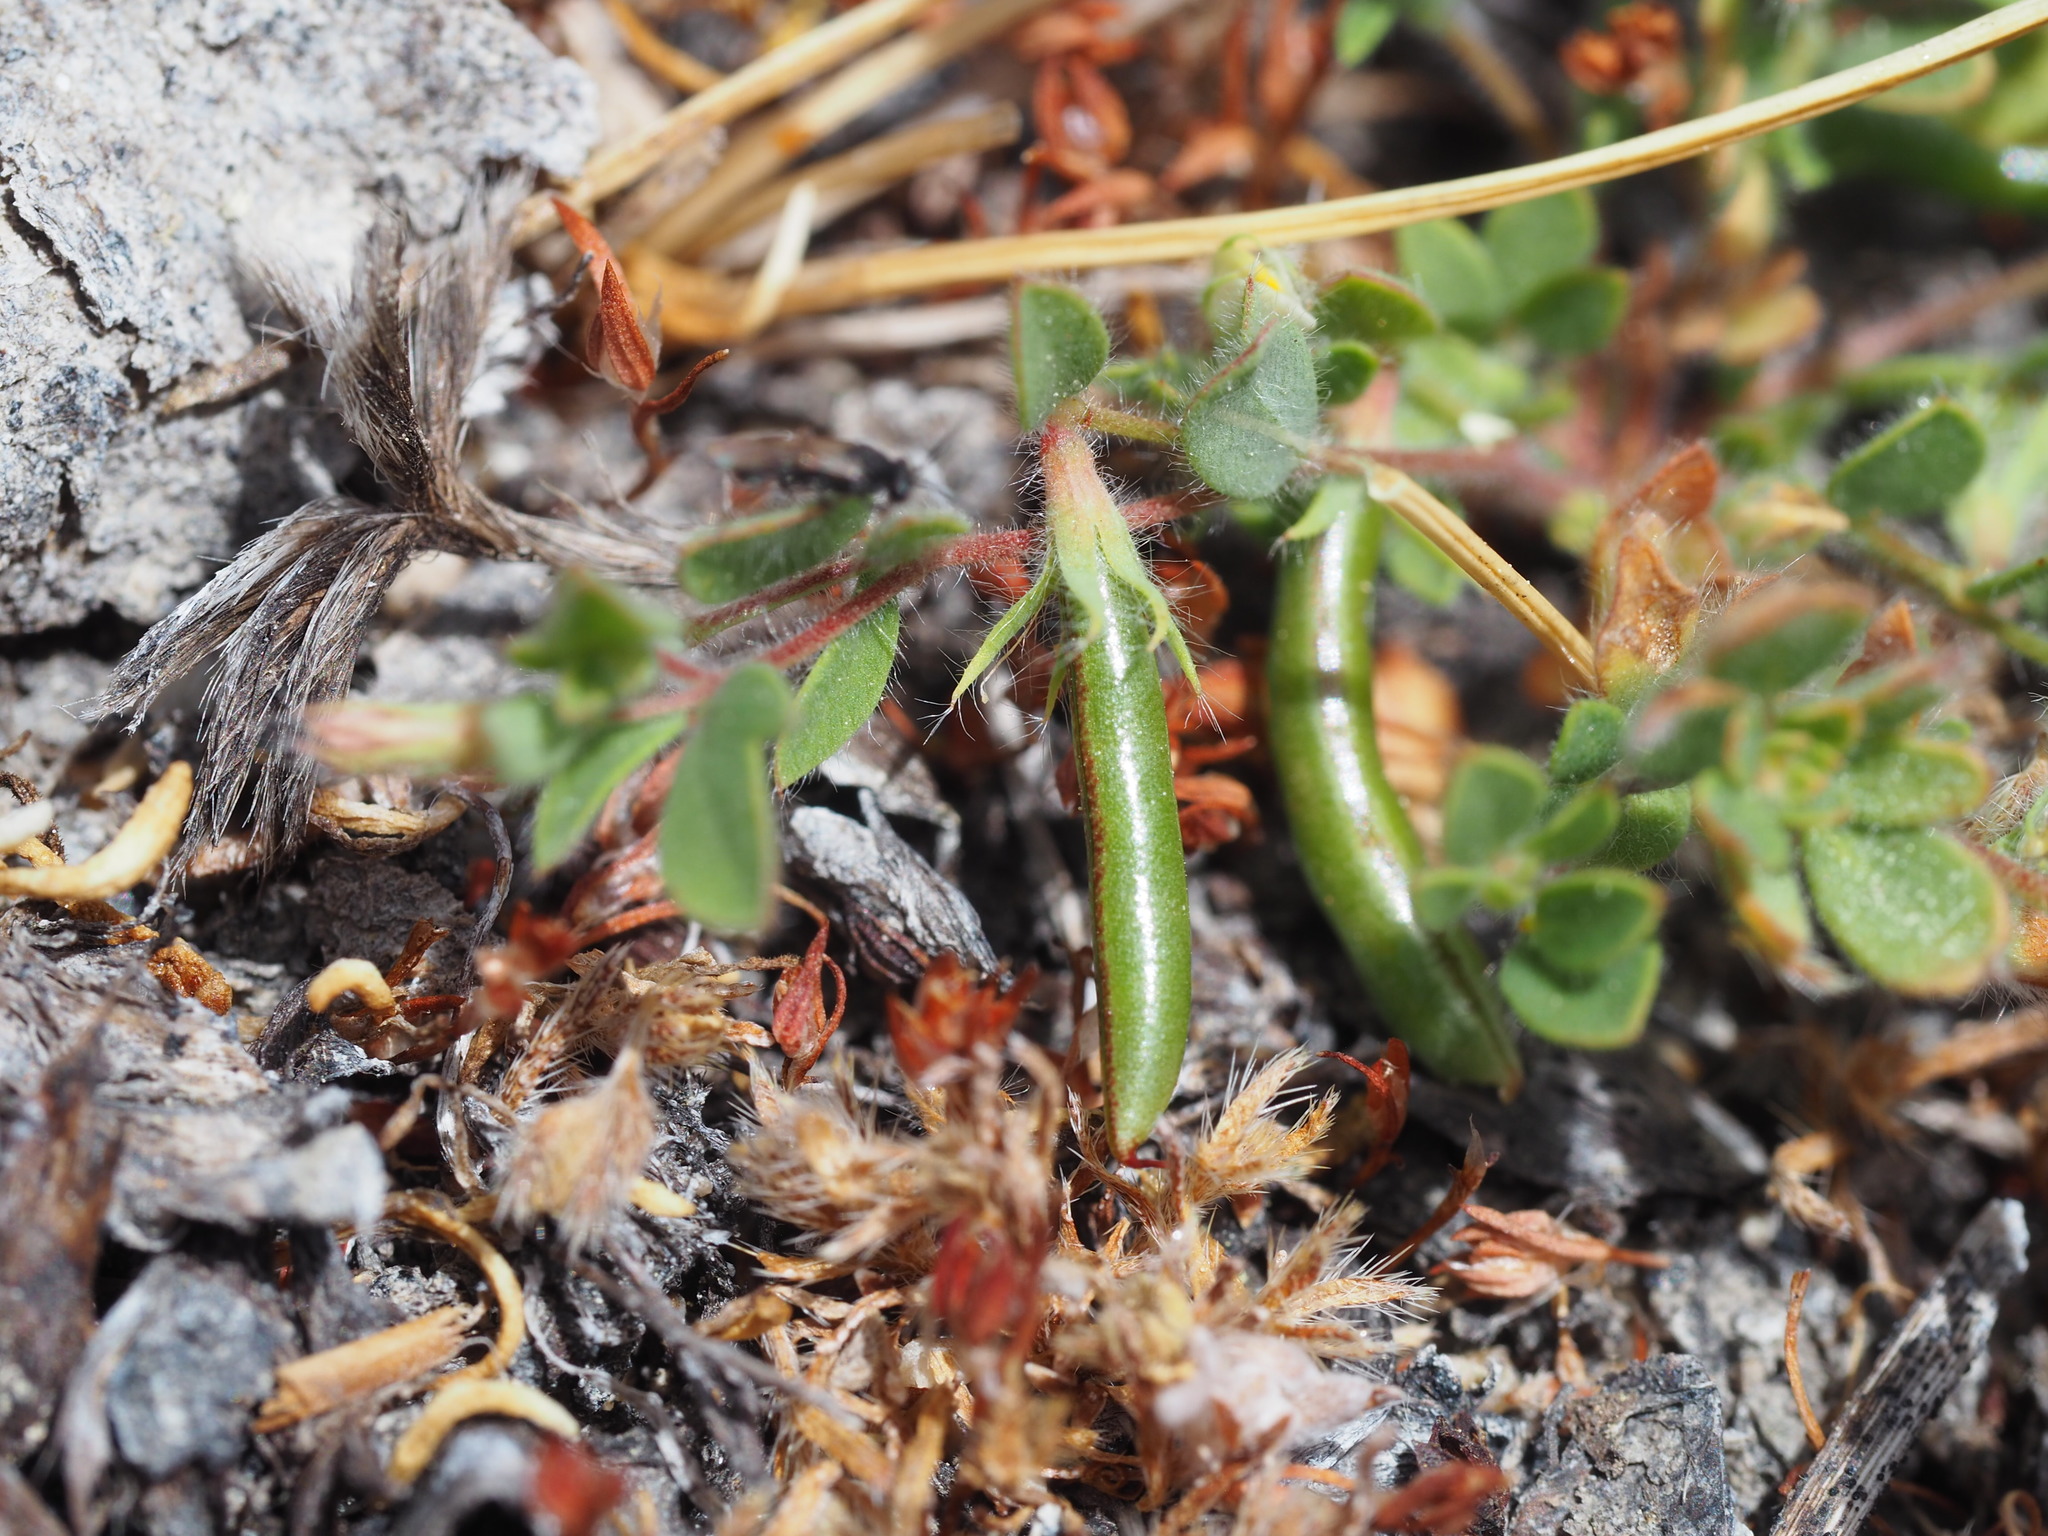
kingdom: Plantae
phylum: Tracheophyta
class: Magnoliopsida
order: Fabales
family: Fabaceae
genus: Acmispon
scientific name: Acmispon americanus
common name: American bird's-foot trefoil
